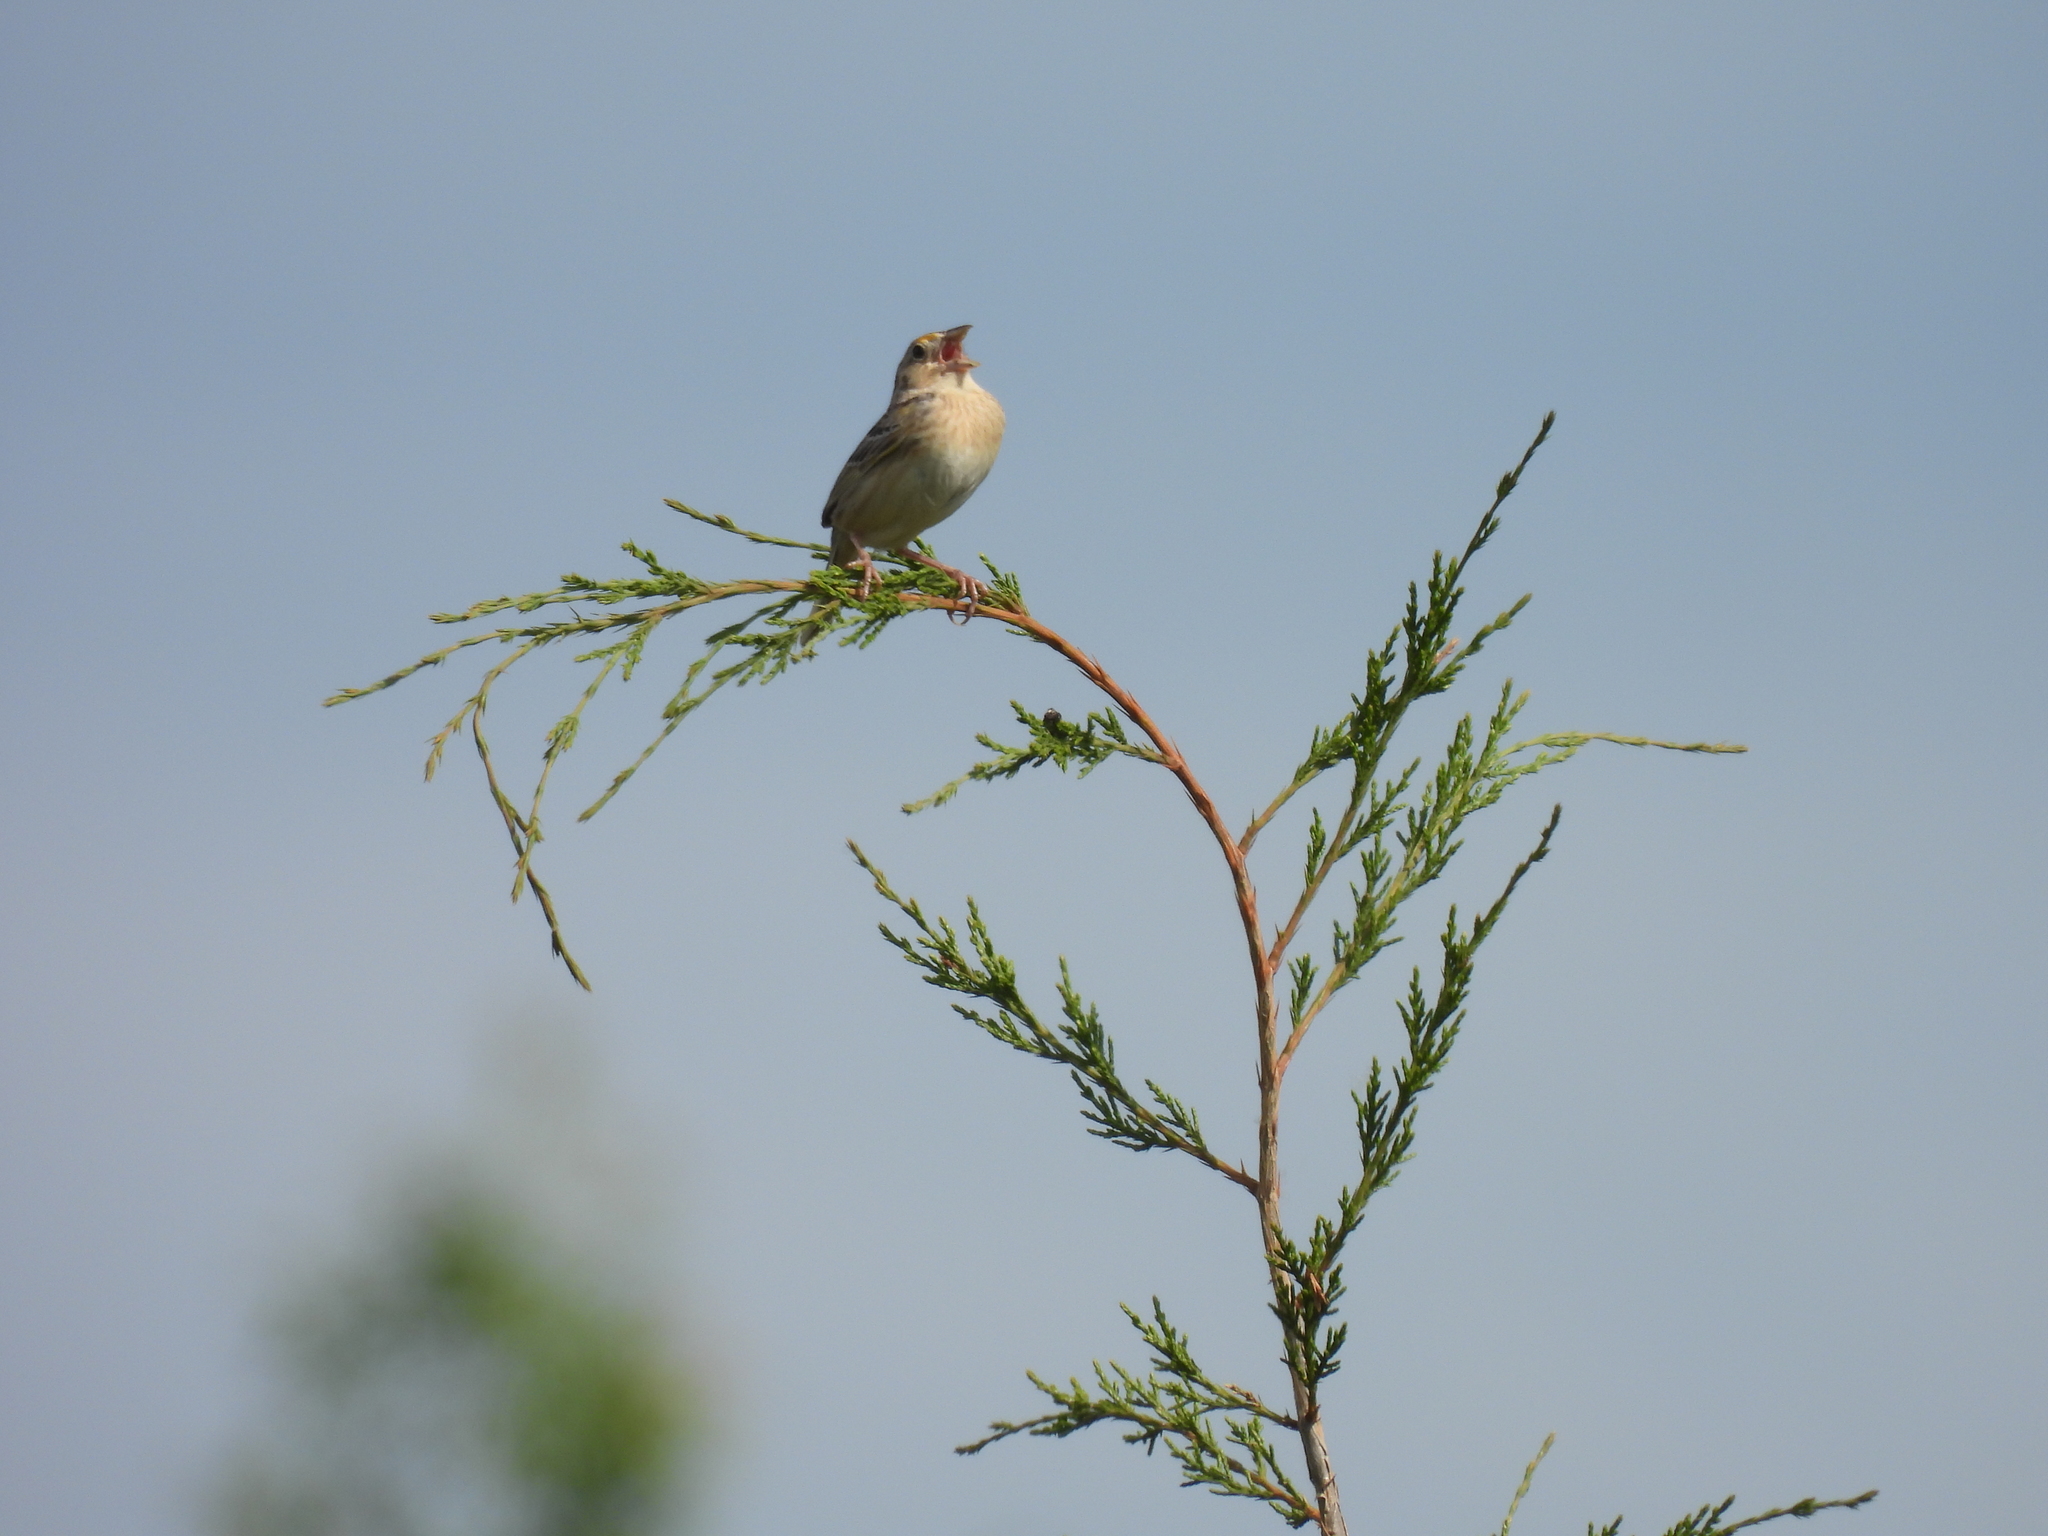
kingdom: Animalia
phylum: Chordata
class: Aves
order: Passeriformes
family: Passerellidae
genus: Ammodramus
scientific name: Ammodramus savannarum
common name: Grasshopper sparrow
